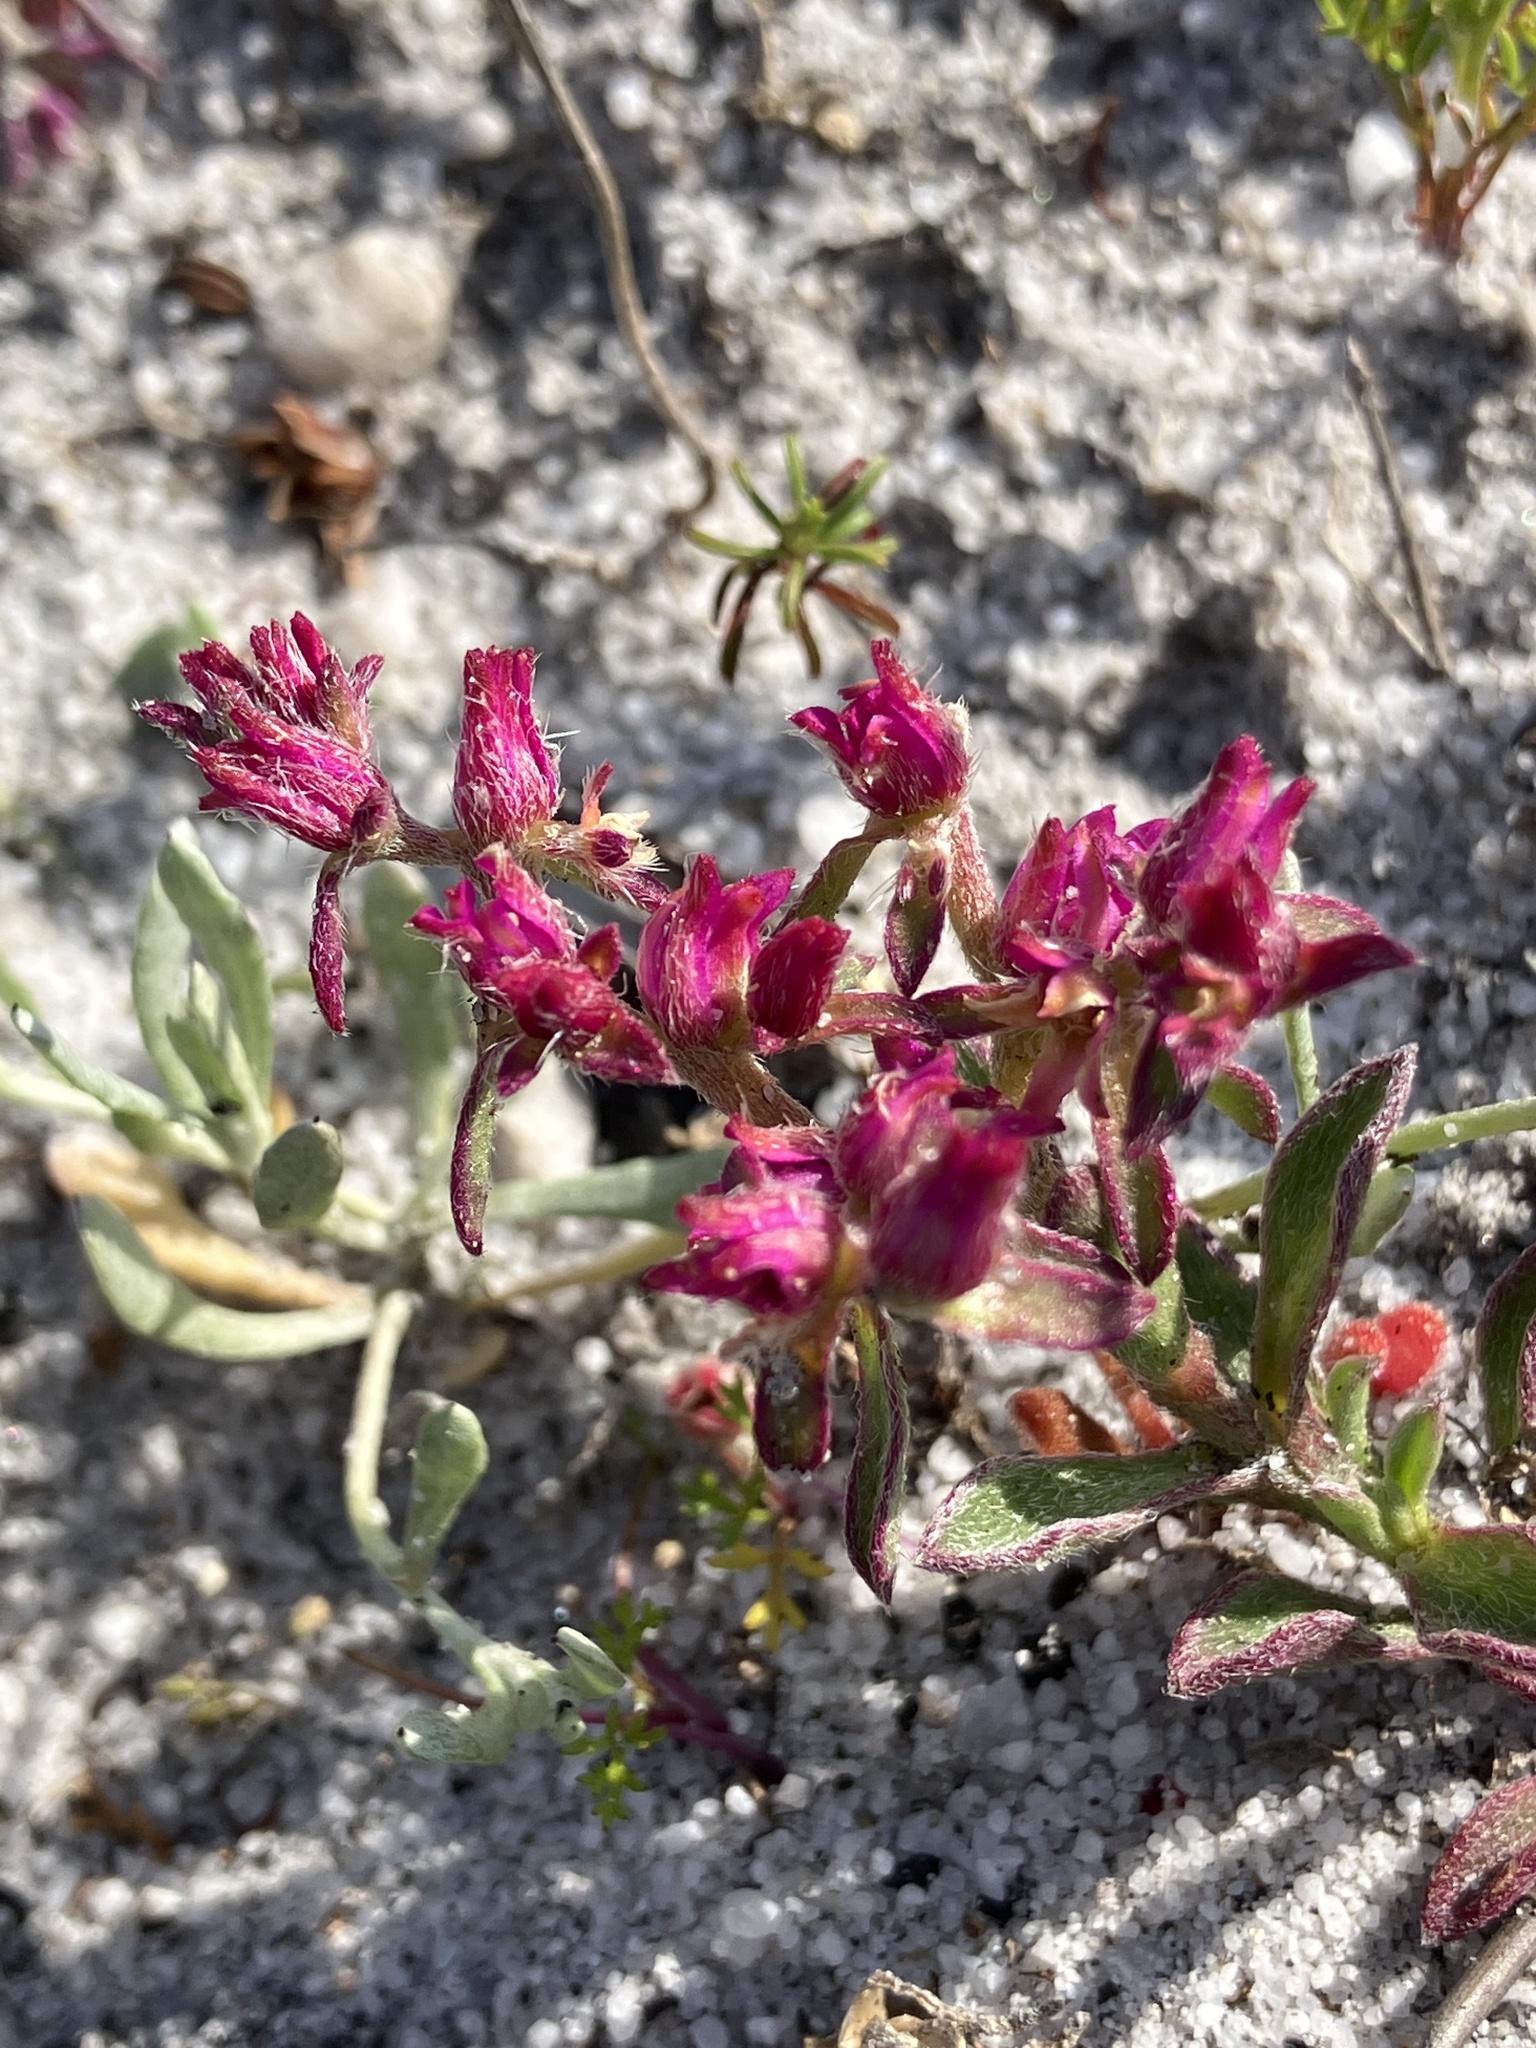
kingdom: Plantae
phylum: Tracheophyta
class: Magnoliopsida
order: Caryophyllales
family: Aizoaceae
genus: Aizoon
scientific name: Aizoon paniculatum
